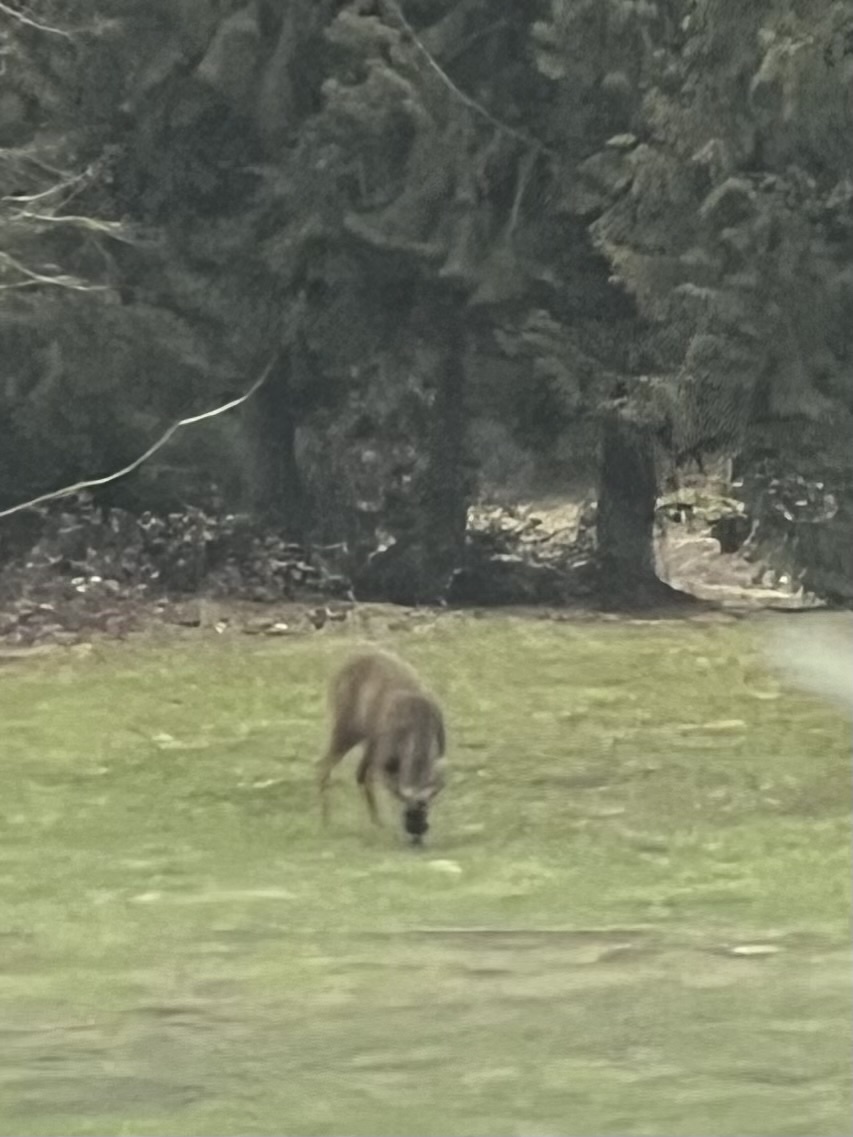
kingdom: Animalia
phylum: Chordata
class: Mammalia
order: Artiodactyla
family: Cervidae
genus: Odocoileus
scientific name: Odocoileus hemionus
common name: Mule deer
